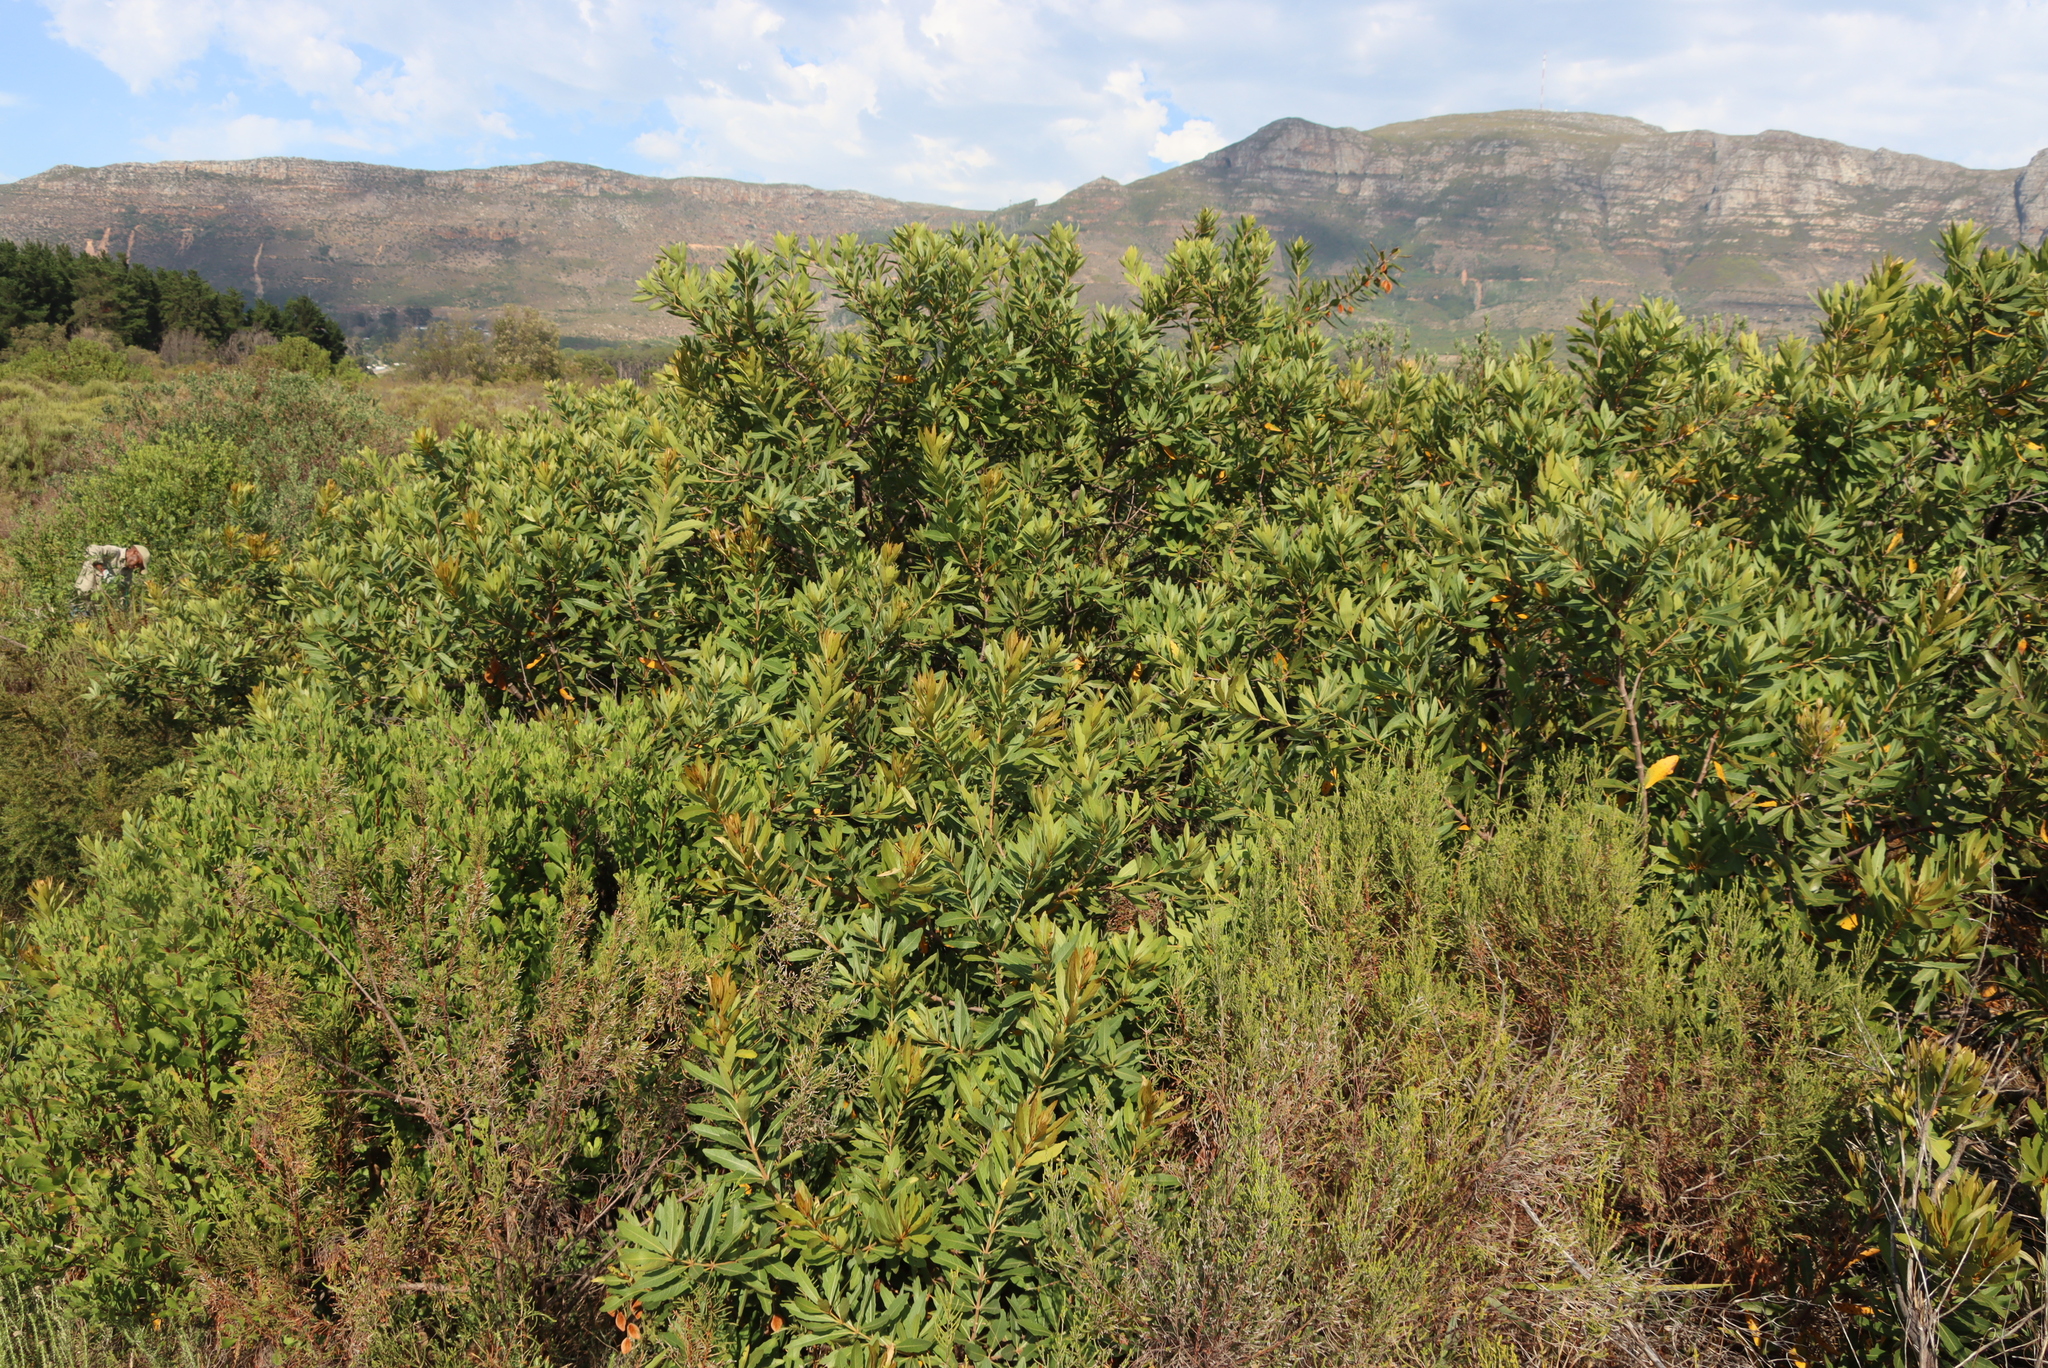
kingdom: Plantae
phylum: Tracheophyta
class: Magnoliopsida
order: Proteales
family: Proteaceae
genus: Brabejum
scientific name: Brabejum stellatifolium
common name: Wild almond
